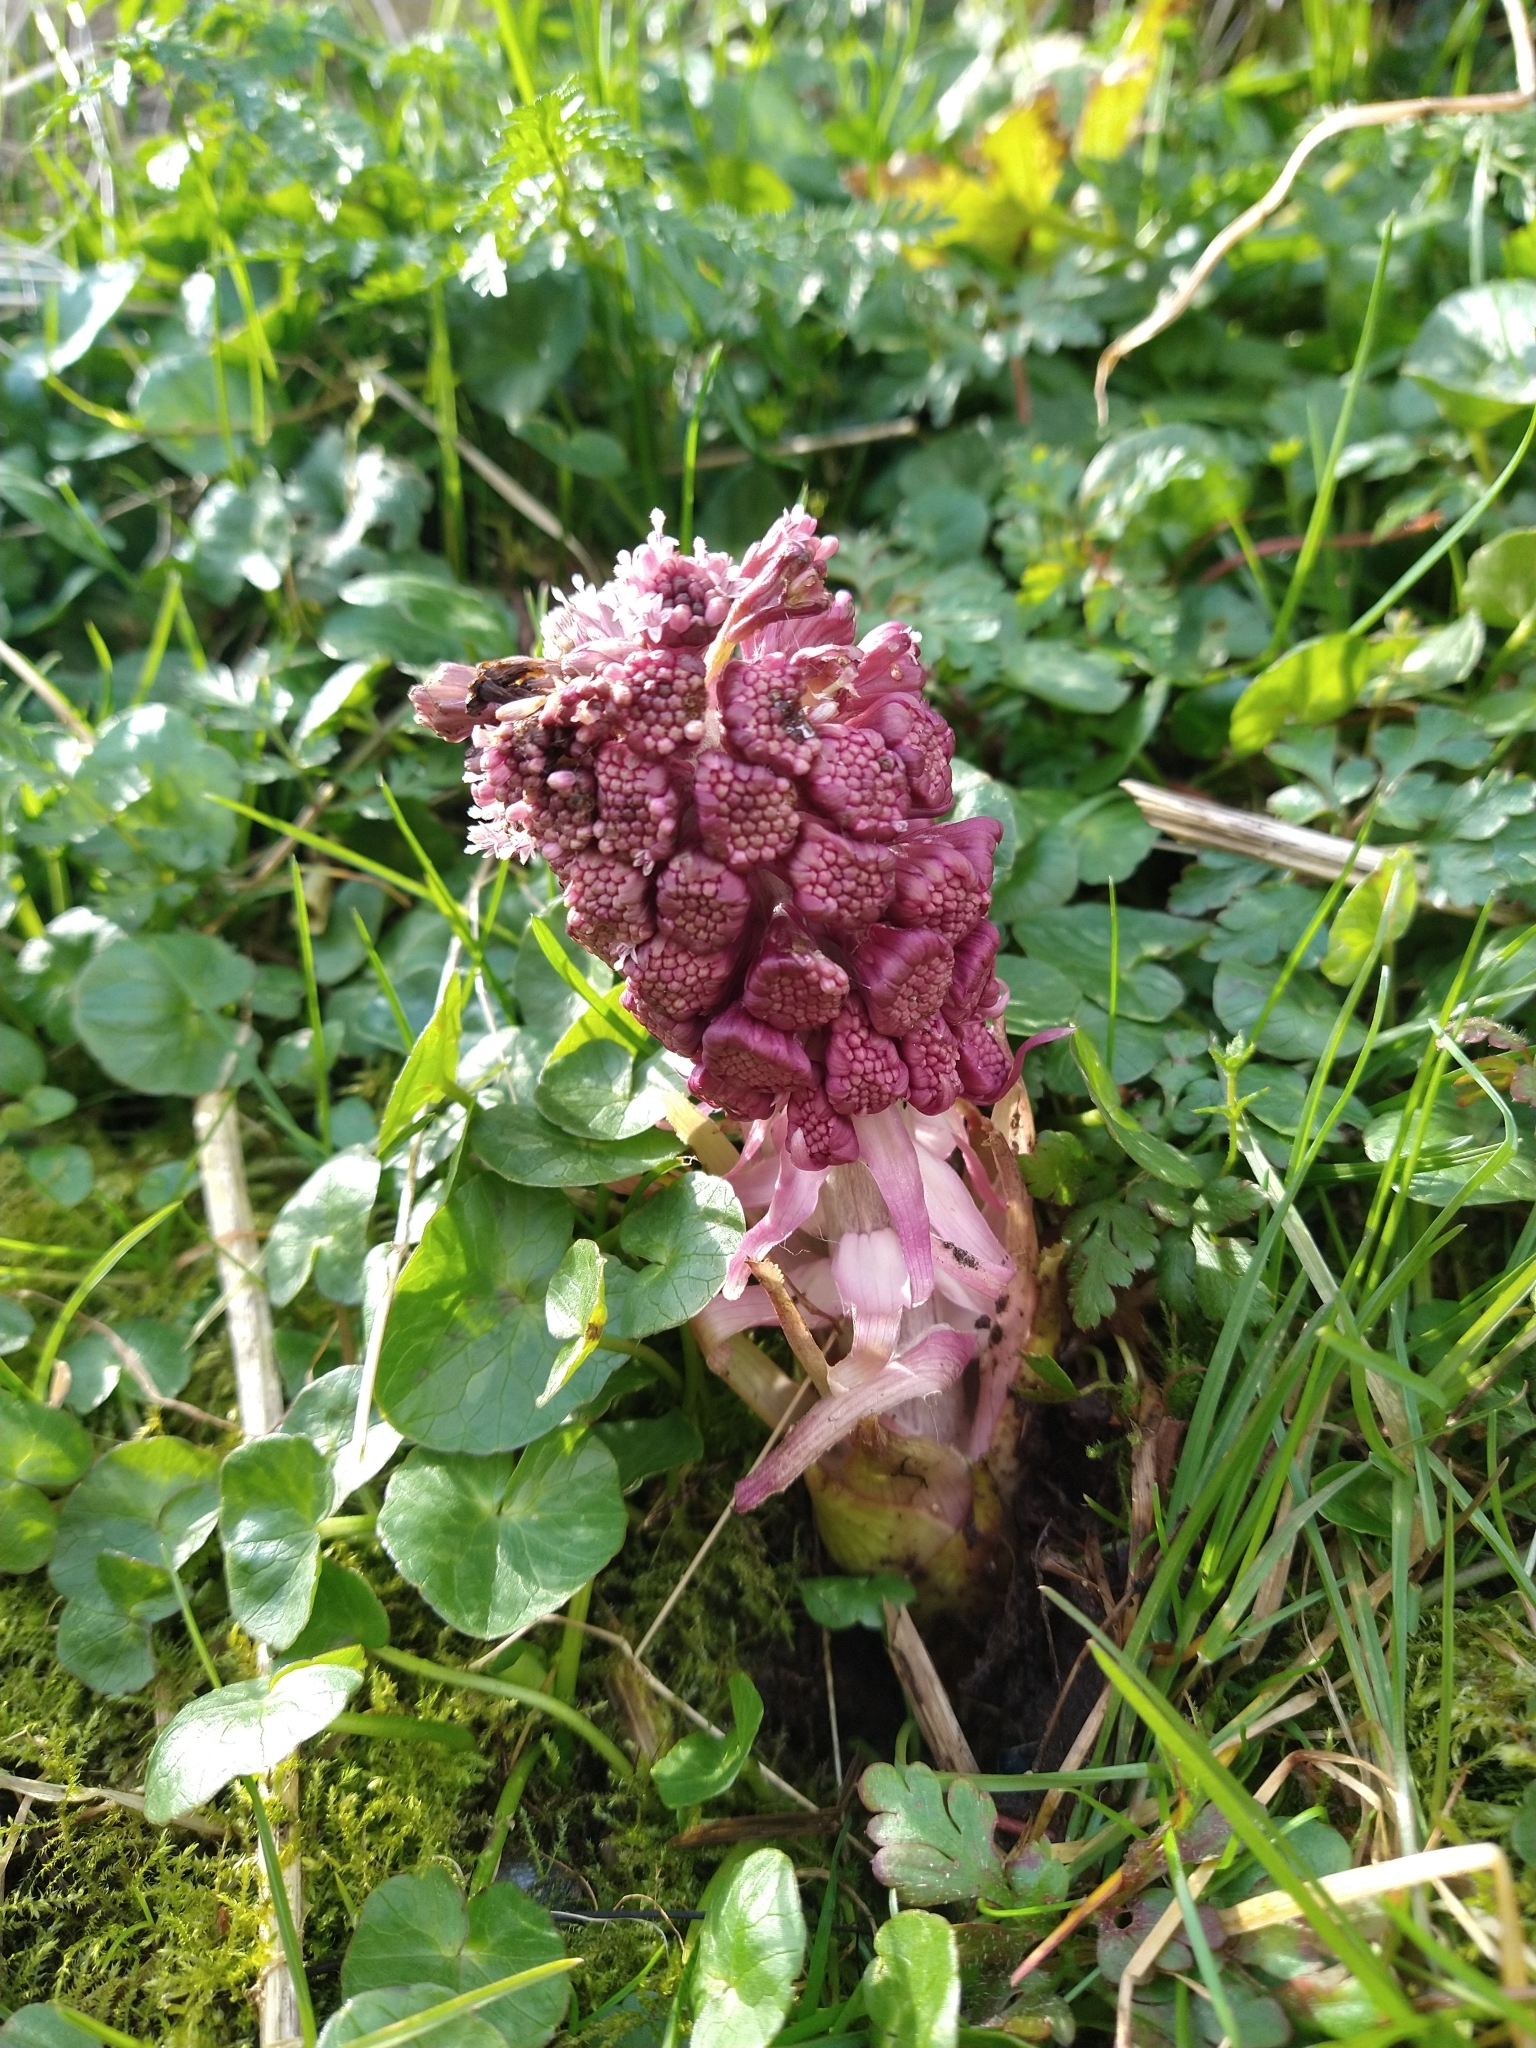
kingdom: Plantae
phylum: Tracheophyta
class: Magnoliopsida
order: Asterales
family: Asteraceae
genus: Petasites
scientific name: Petasites hybridus
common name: Butterbur
